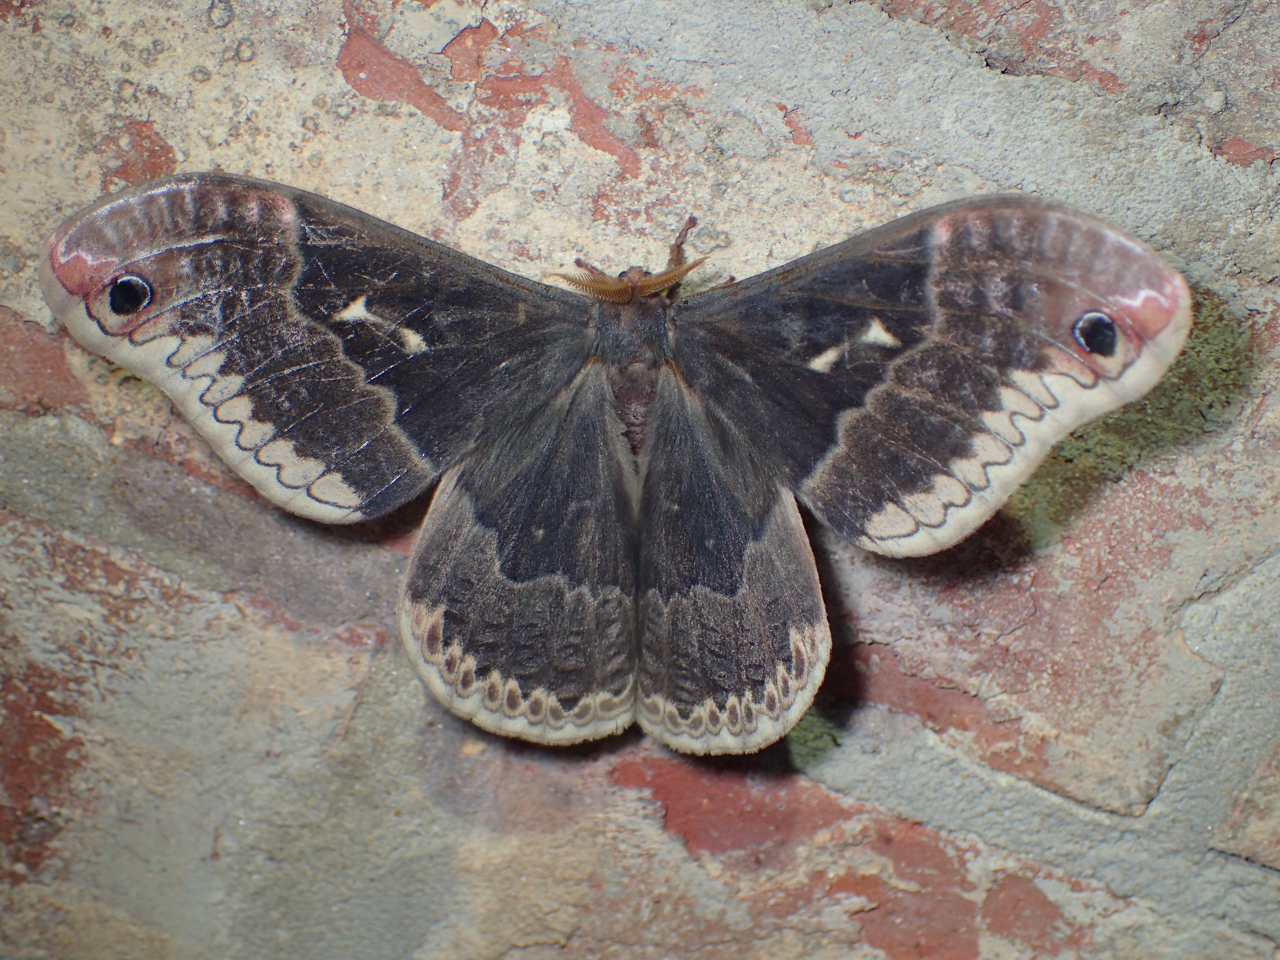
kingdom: Animalia
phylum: Arthropoda
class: Insecta
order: Lepidoptera
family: Saturniidae
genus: Callosamia
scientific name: Callosamia angulifera
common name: Tulip tree silkmoth
